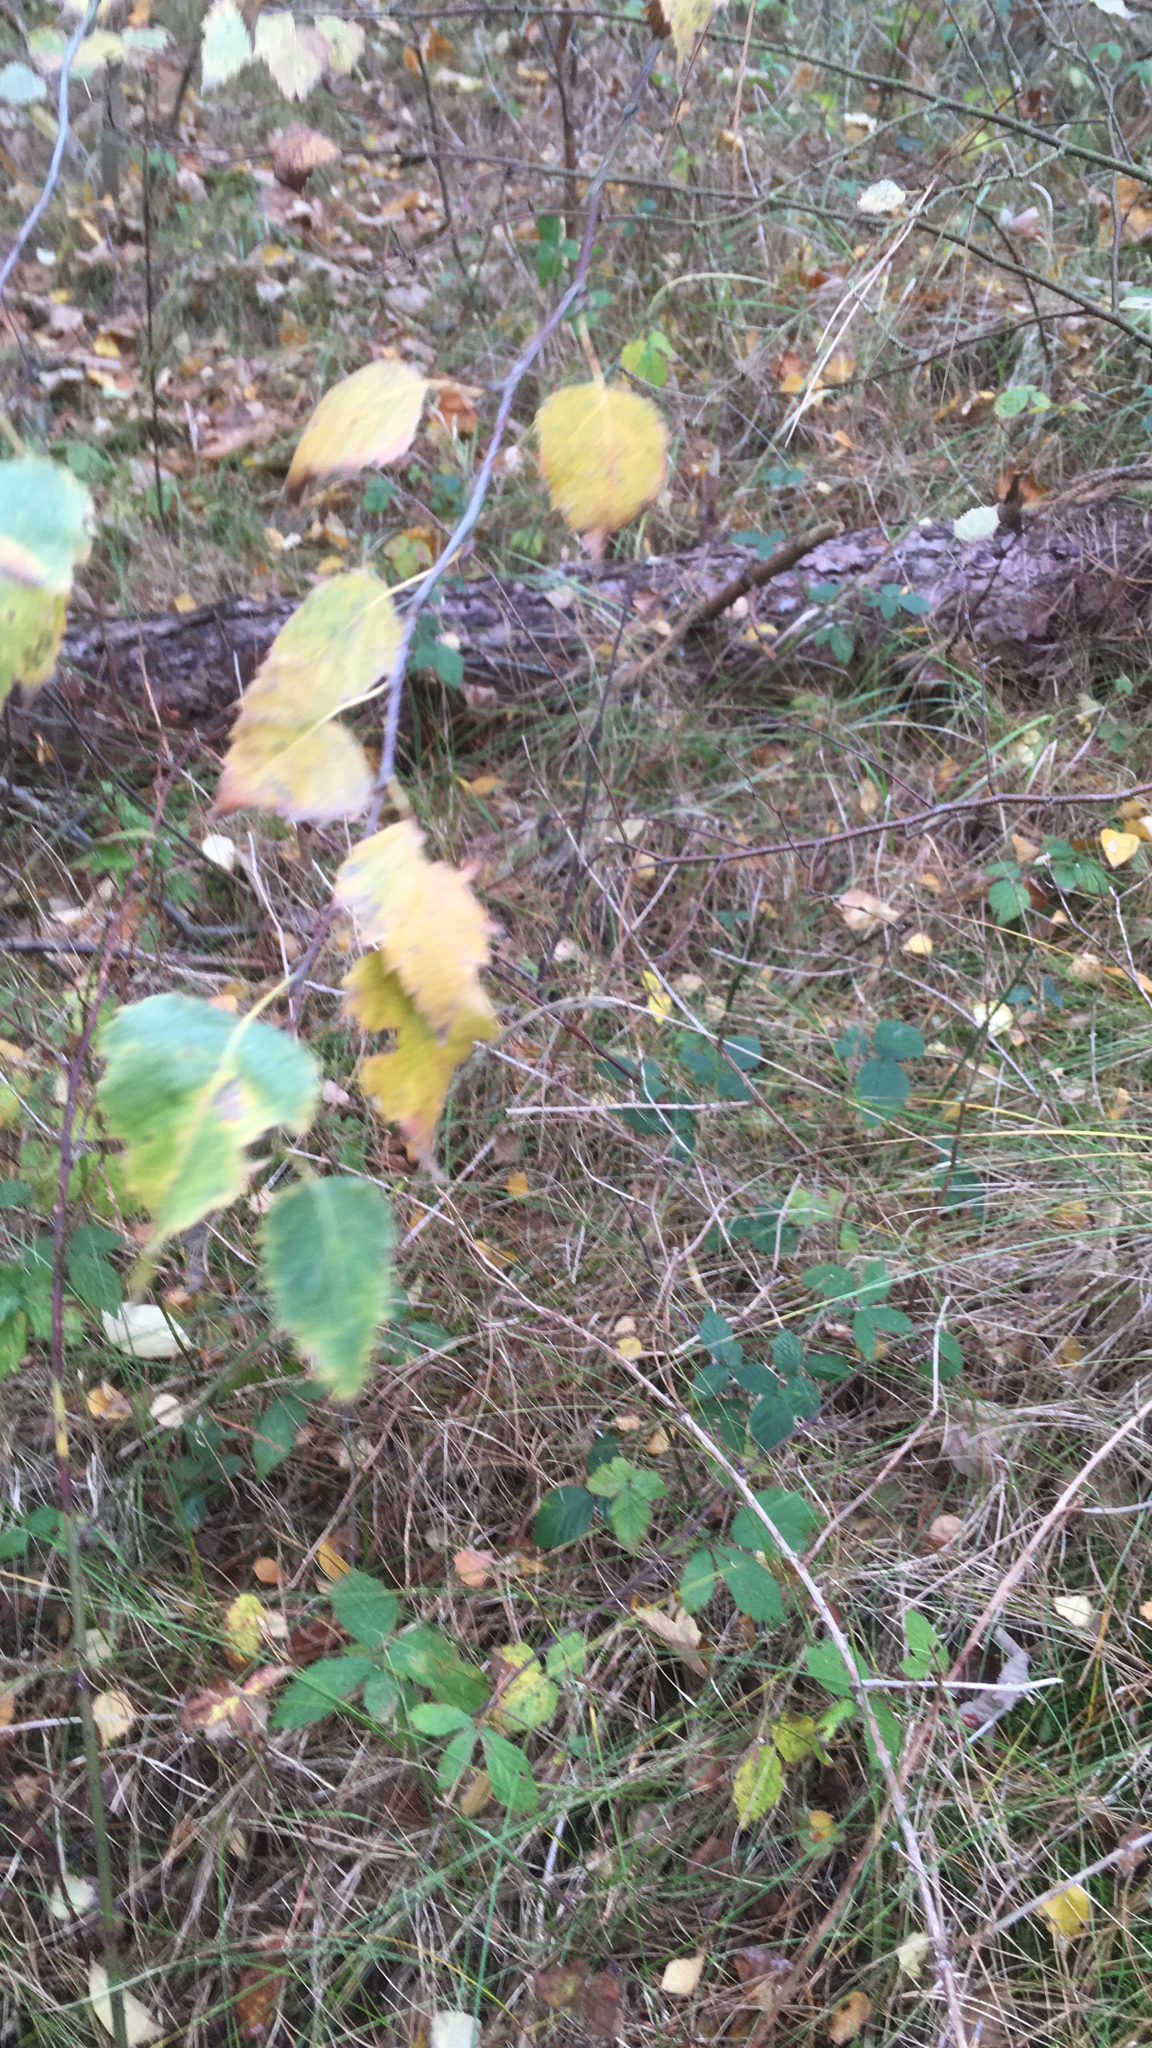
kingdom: Plantae
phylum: Tracheophyta
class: Magnoliopsida
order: Fagales
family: Betulaceae
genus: Betula
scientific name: Betula pendula
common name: Silver birch
